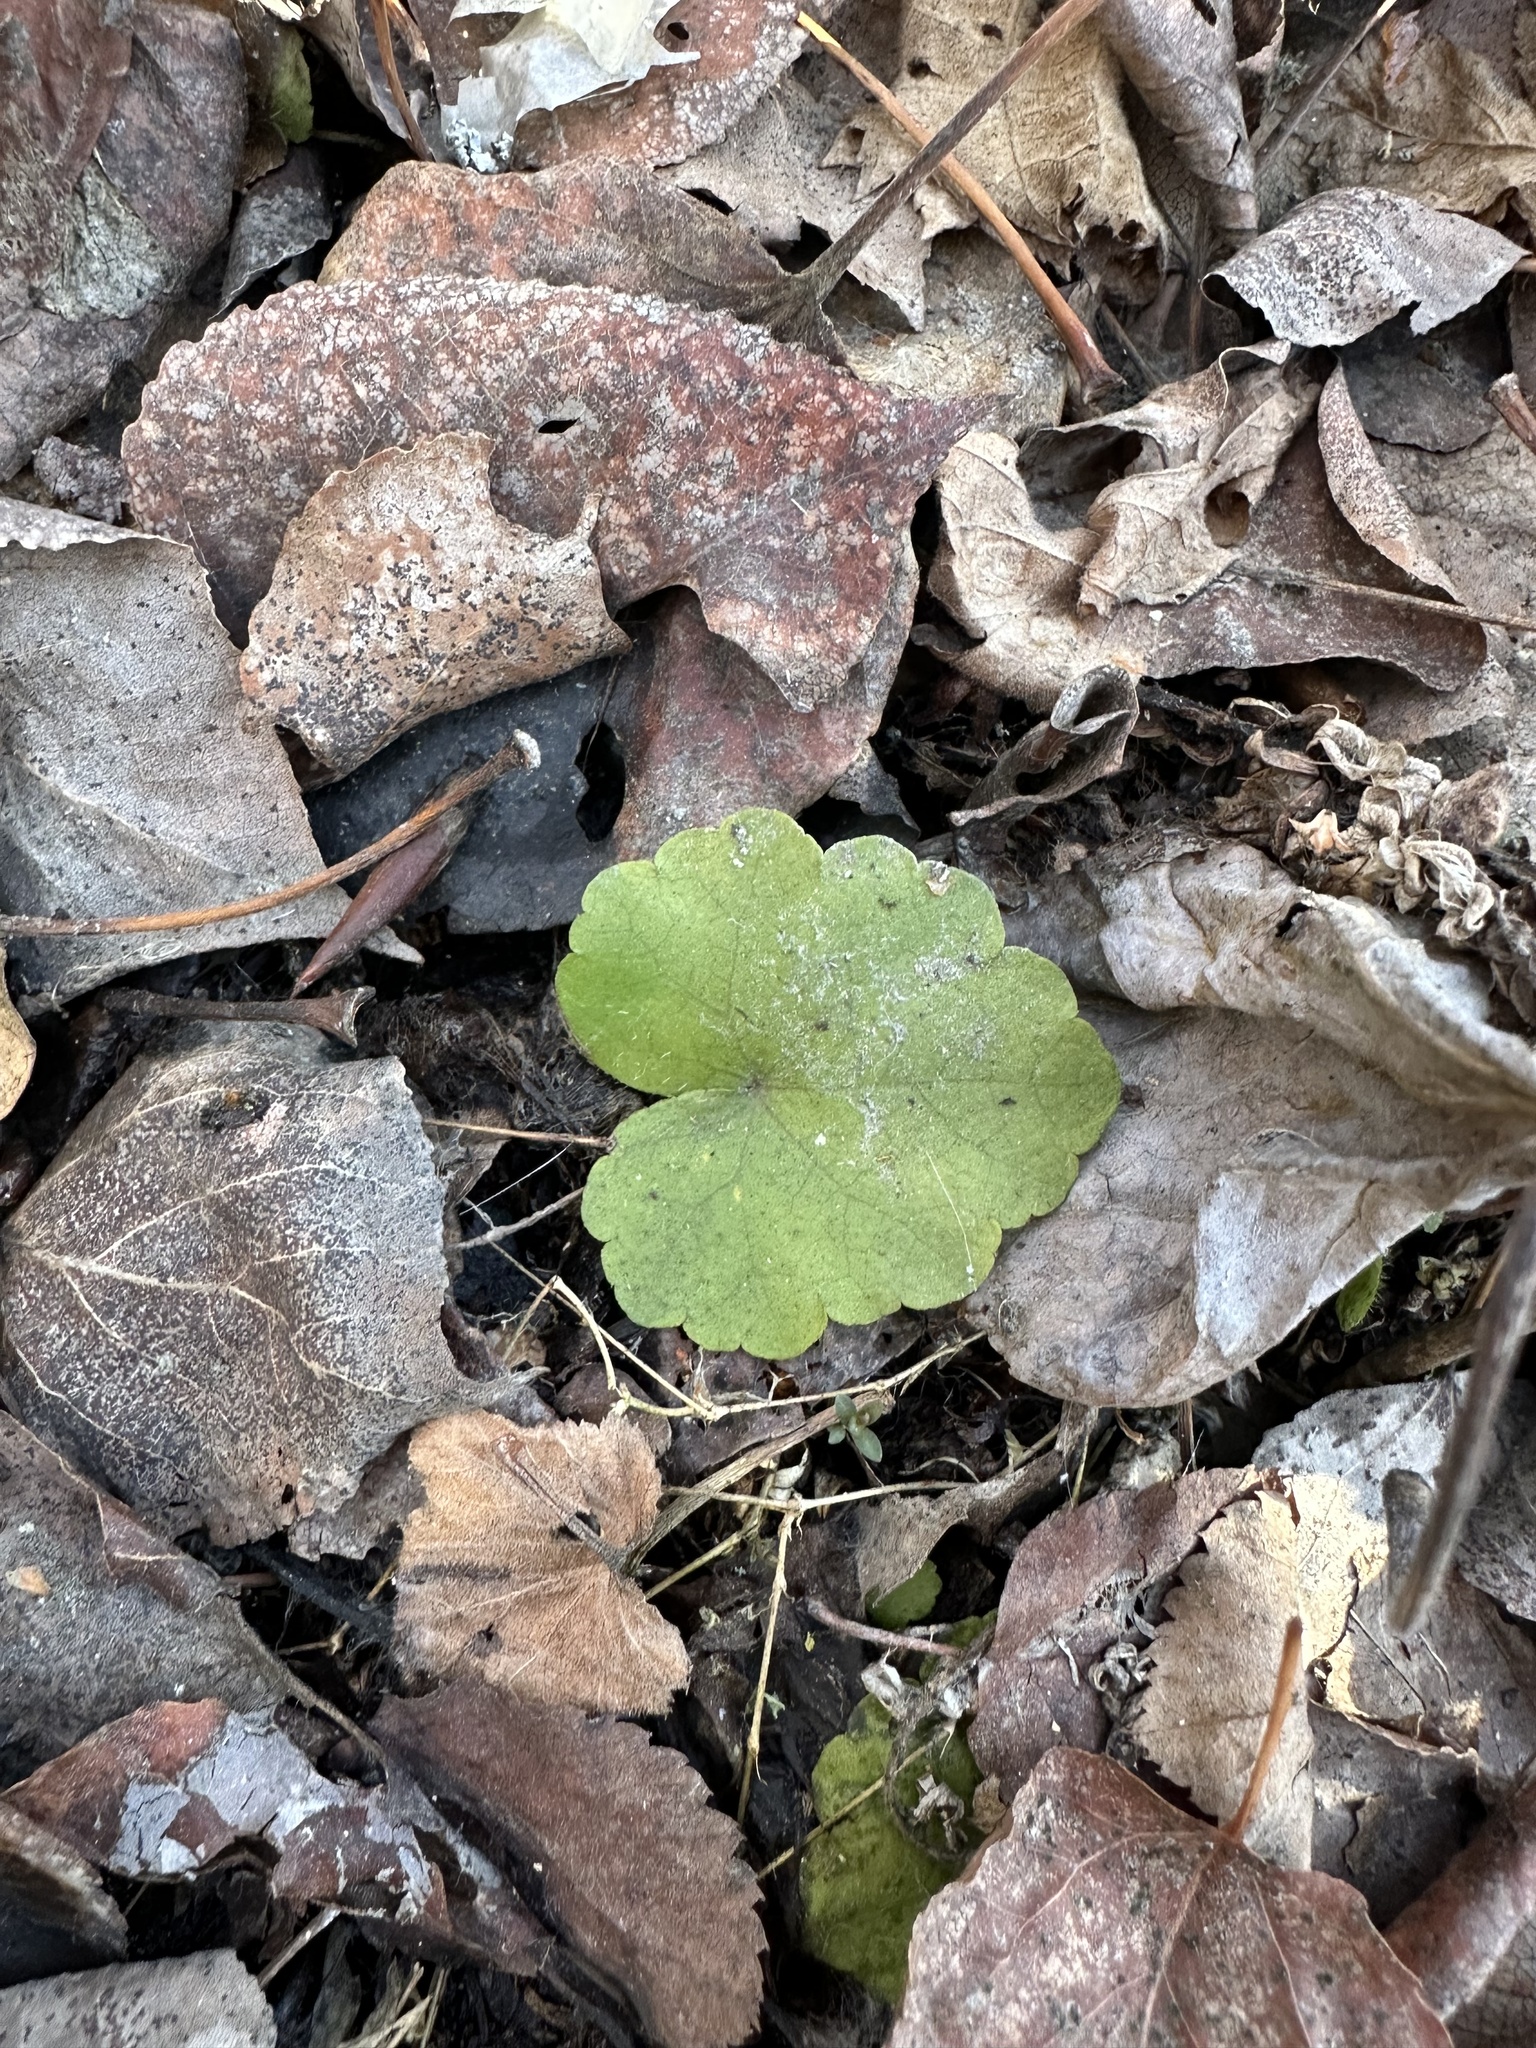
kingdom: Plantae
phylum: Tracheophyta
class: Magnoliopsida
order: Saxifragales
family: Saxifragaceae
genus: Mitella
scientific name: Mitella nuda
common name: Bare-stemmed bishop's-cap
